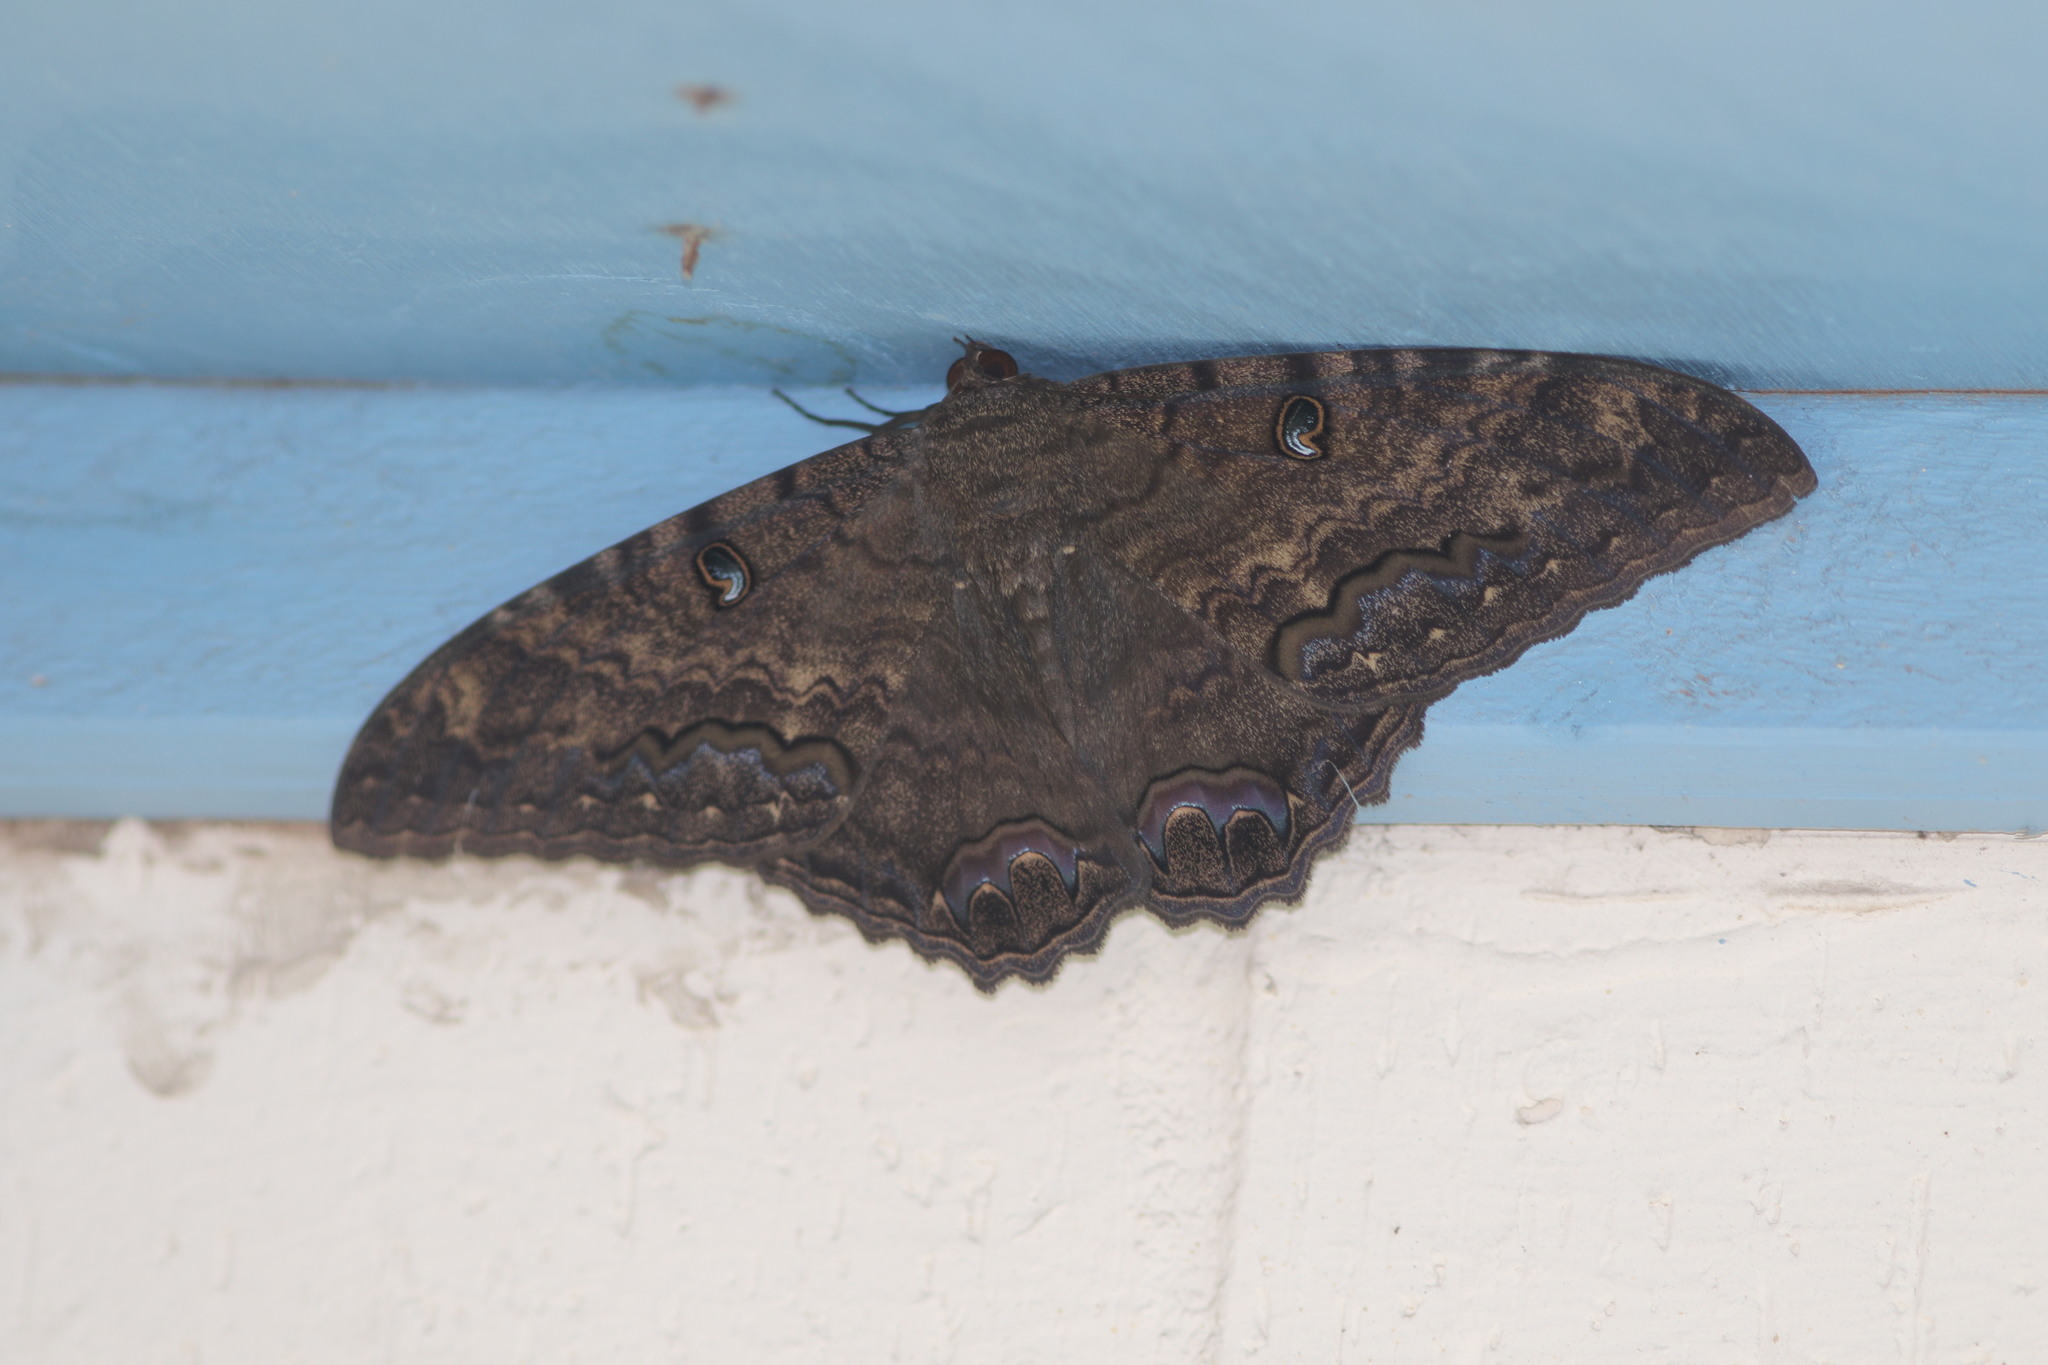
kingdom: Animalia
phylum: Arthropoda
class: Insecta
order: Lepidoptera
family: Erebidae
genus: Ascalapha
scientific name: Ascalapha odorata
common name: Black witch
